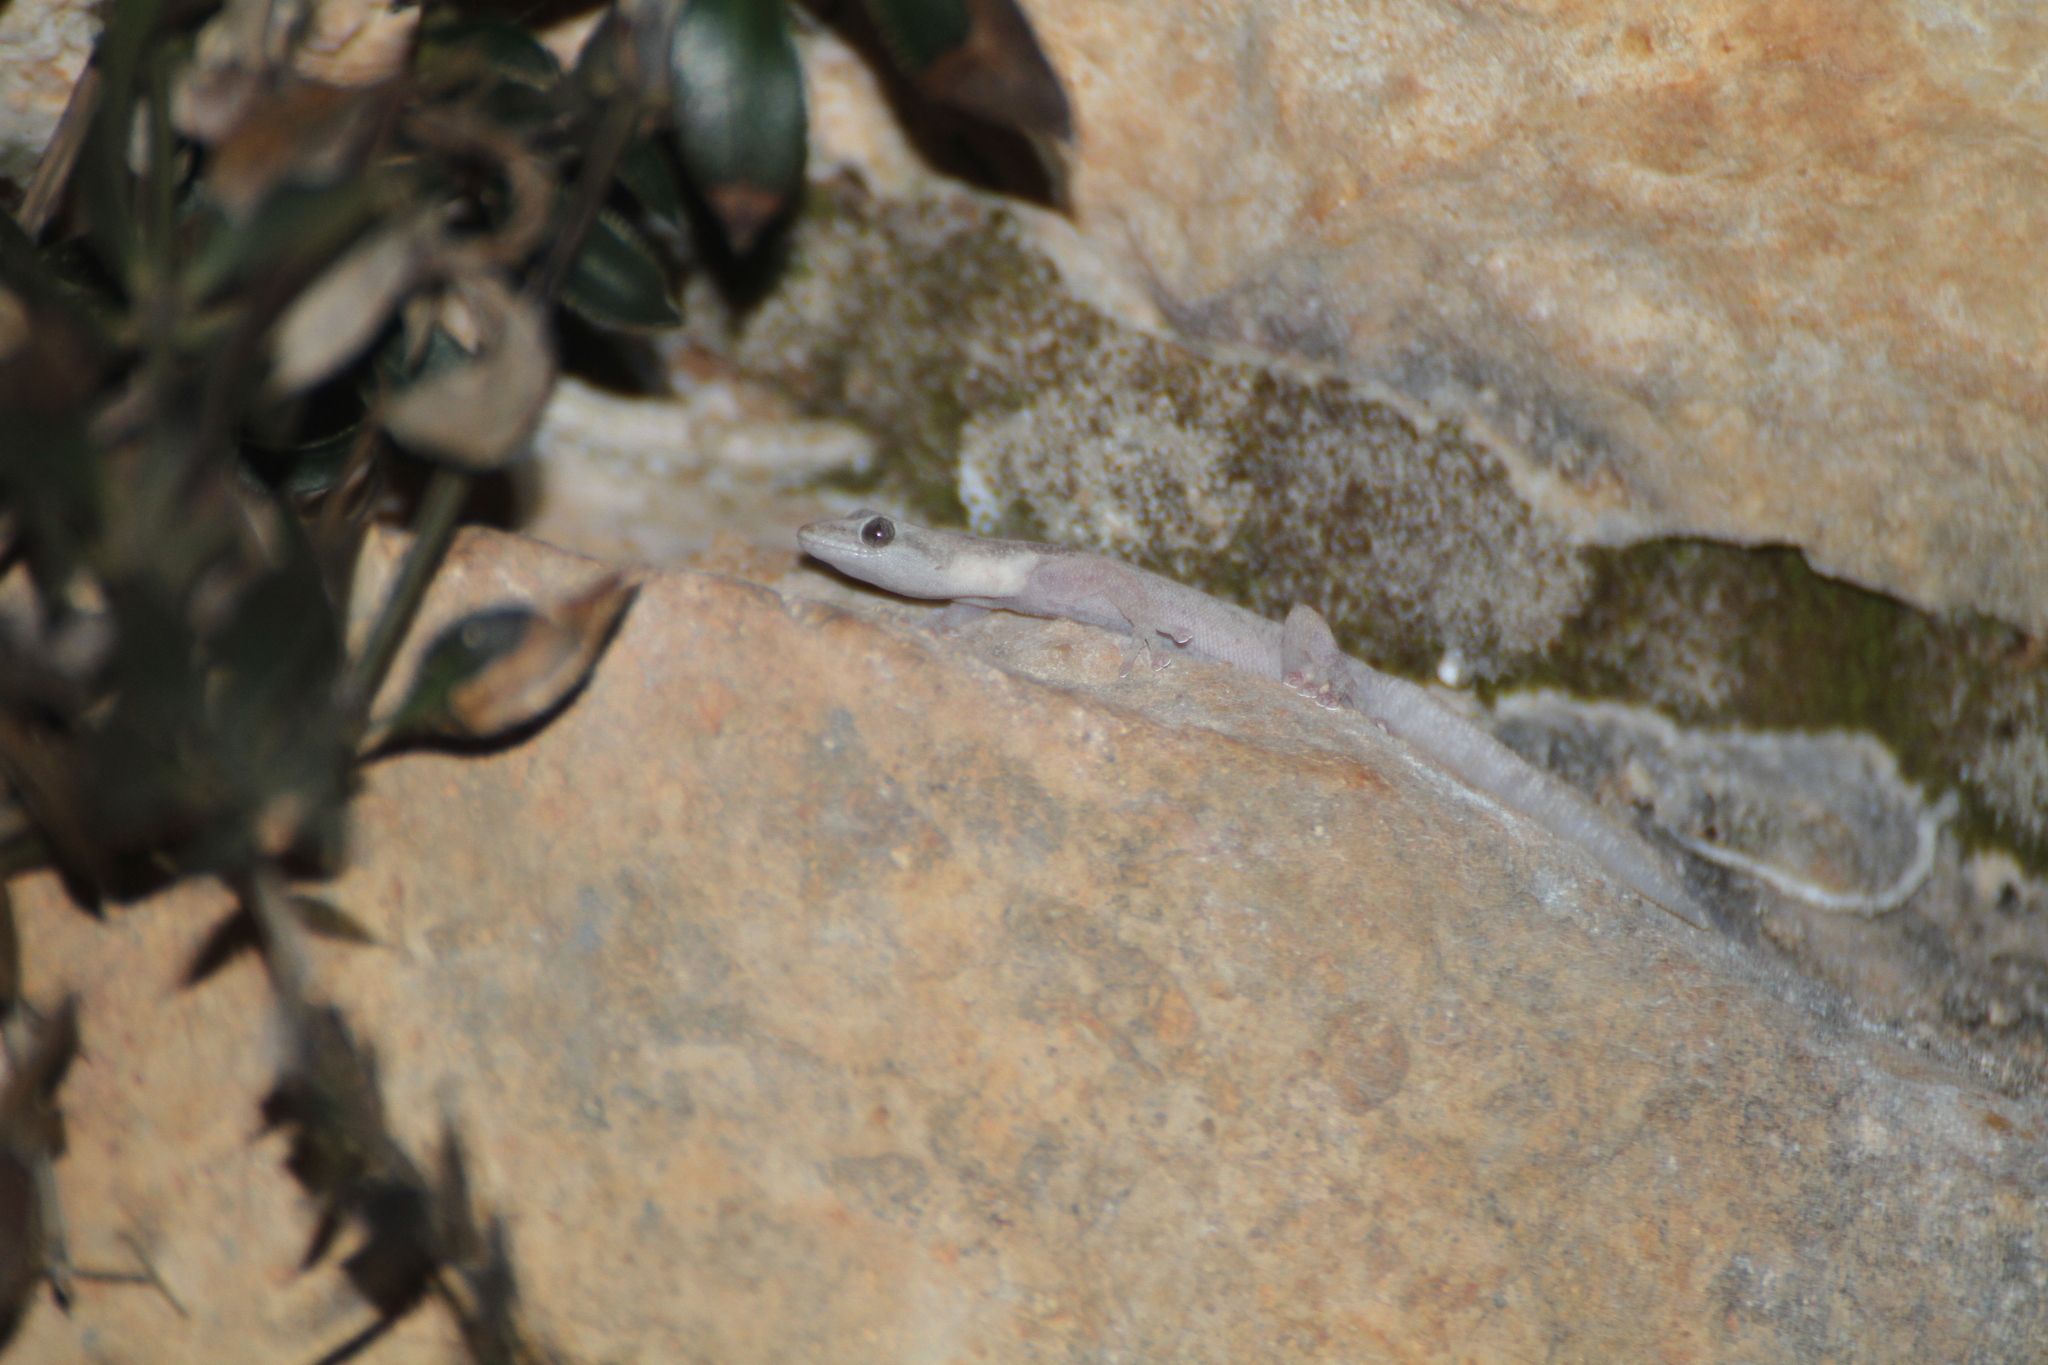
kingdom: Animalia
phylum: Chordata
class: Squamata
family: Sphaerodactylidae
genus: Euleptes
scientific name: Euleptes europaea
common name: English common name not available
